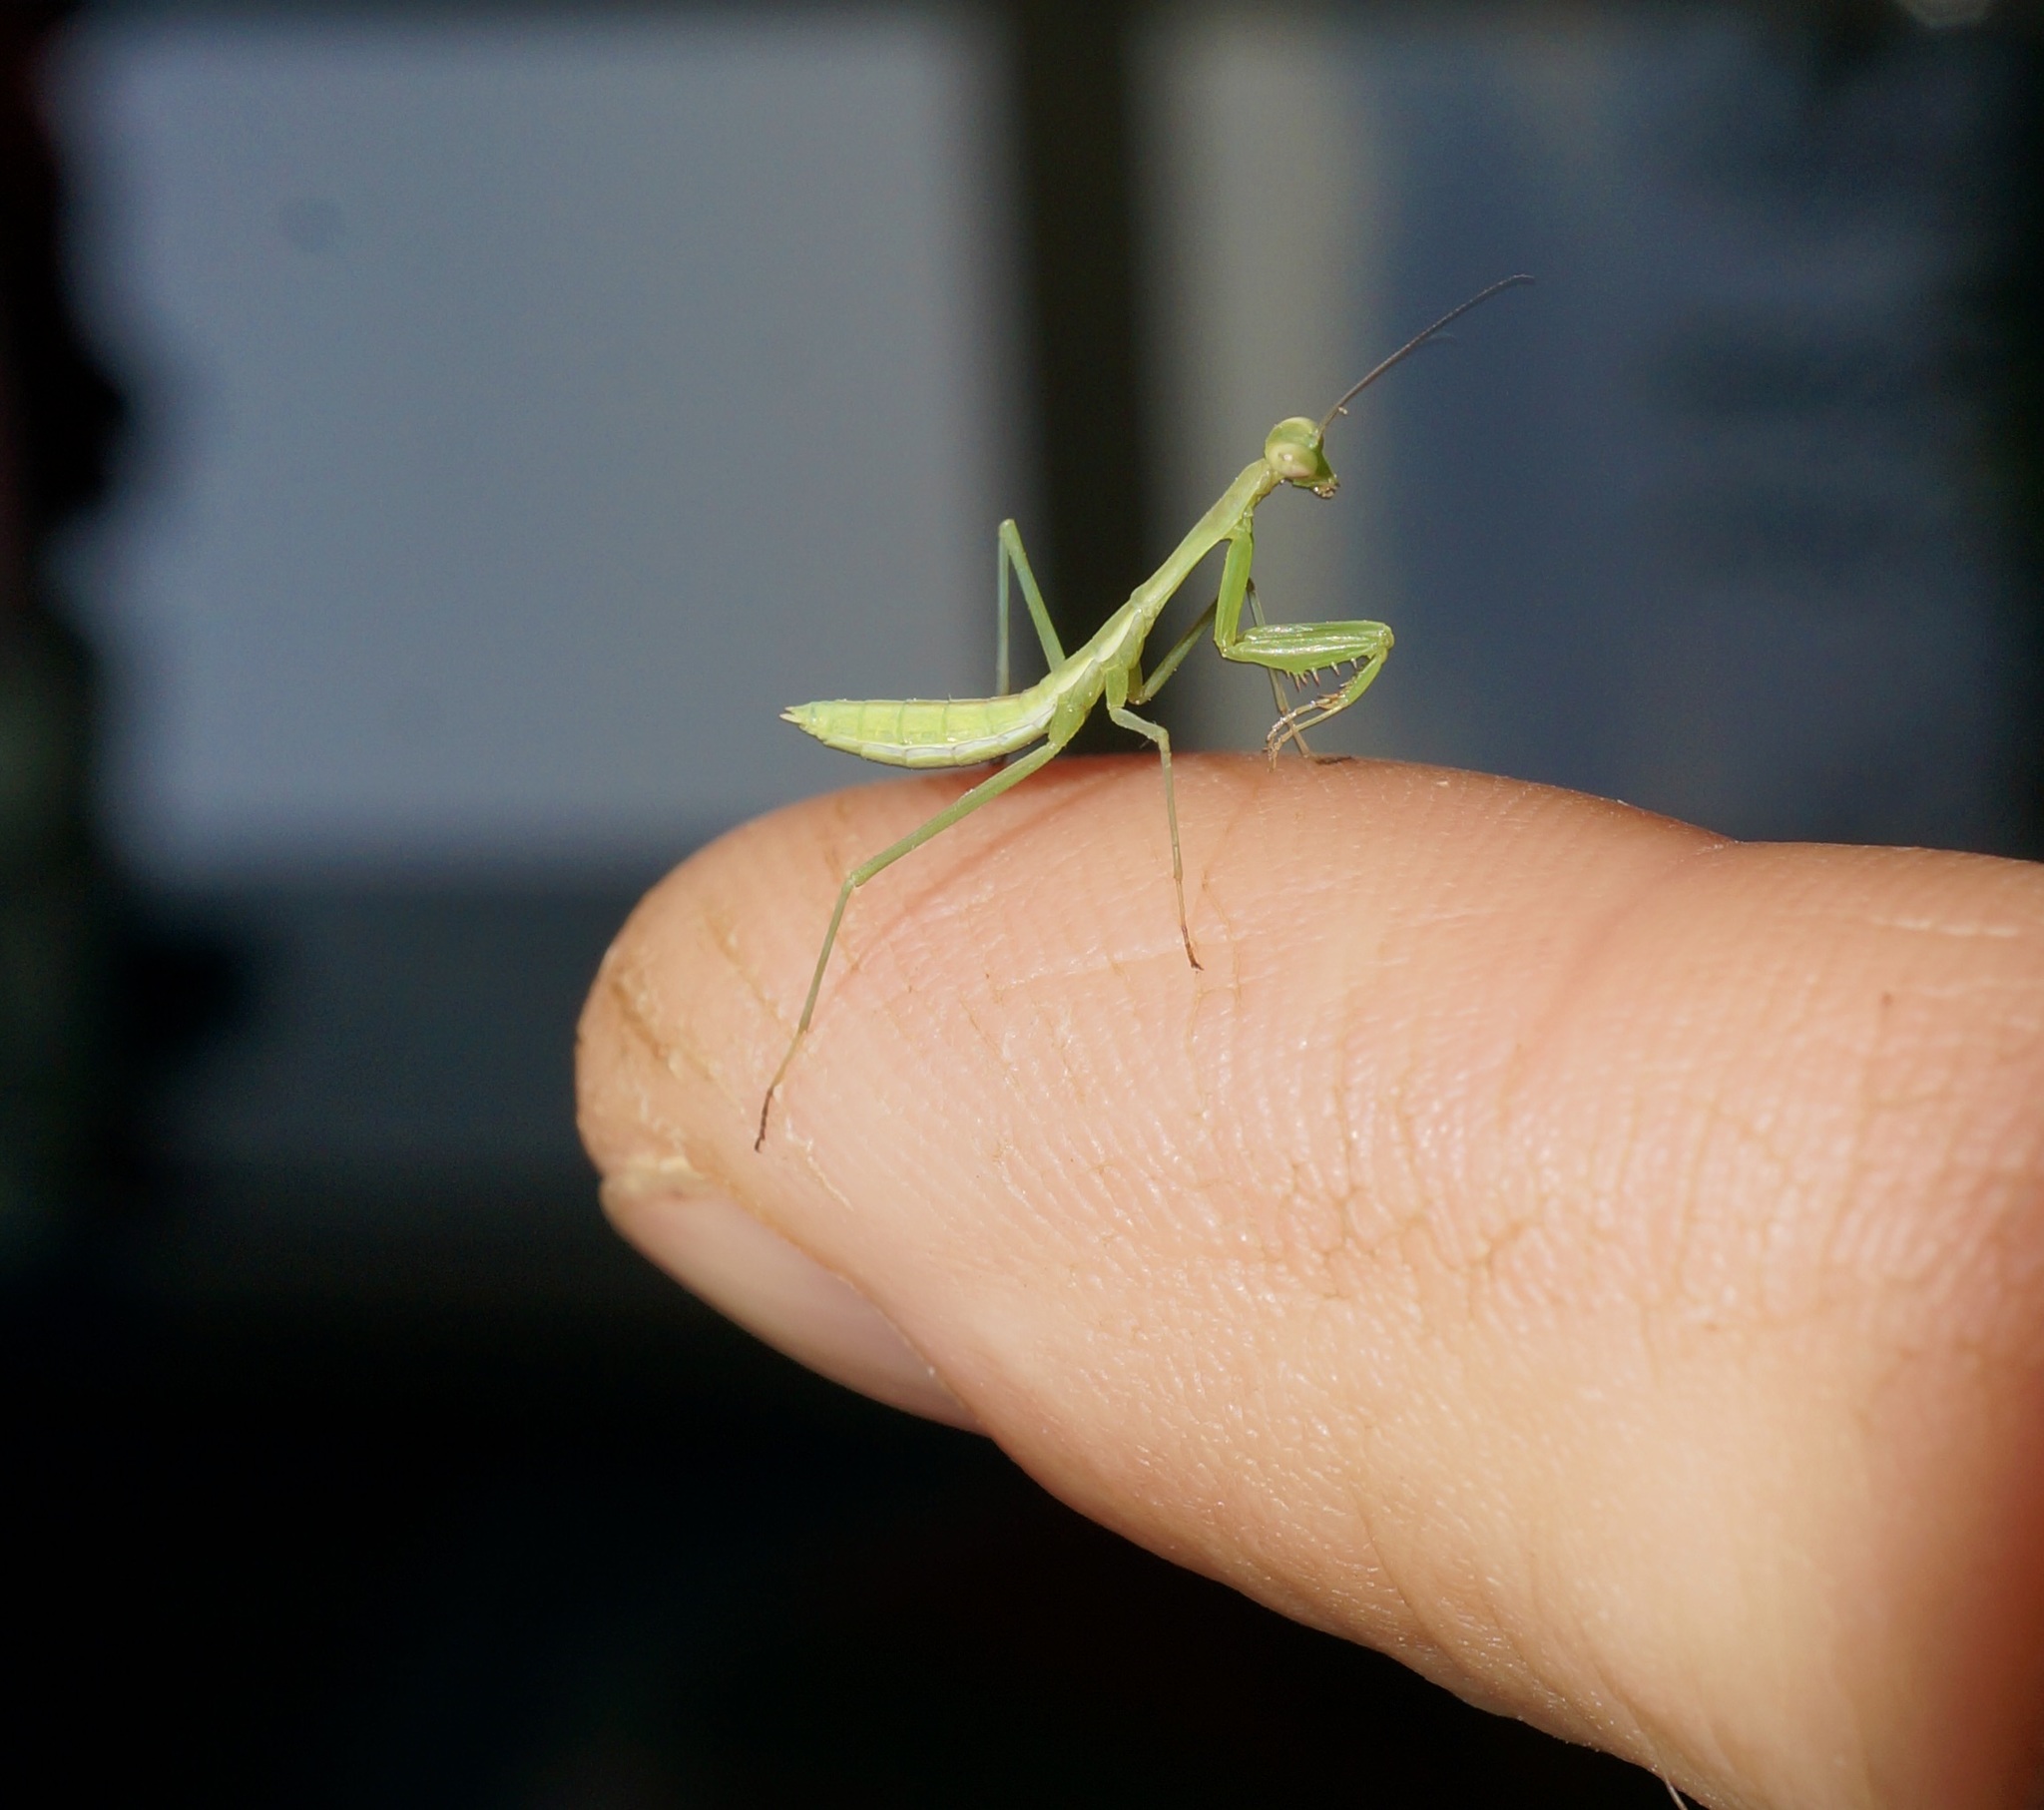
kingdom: Animalia
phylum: Arthropoda
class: Insecta
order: Mantodea
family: Miomantidae
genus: Miomantis
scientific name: Miomantis caffra
